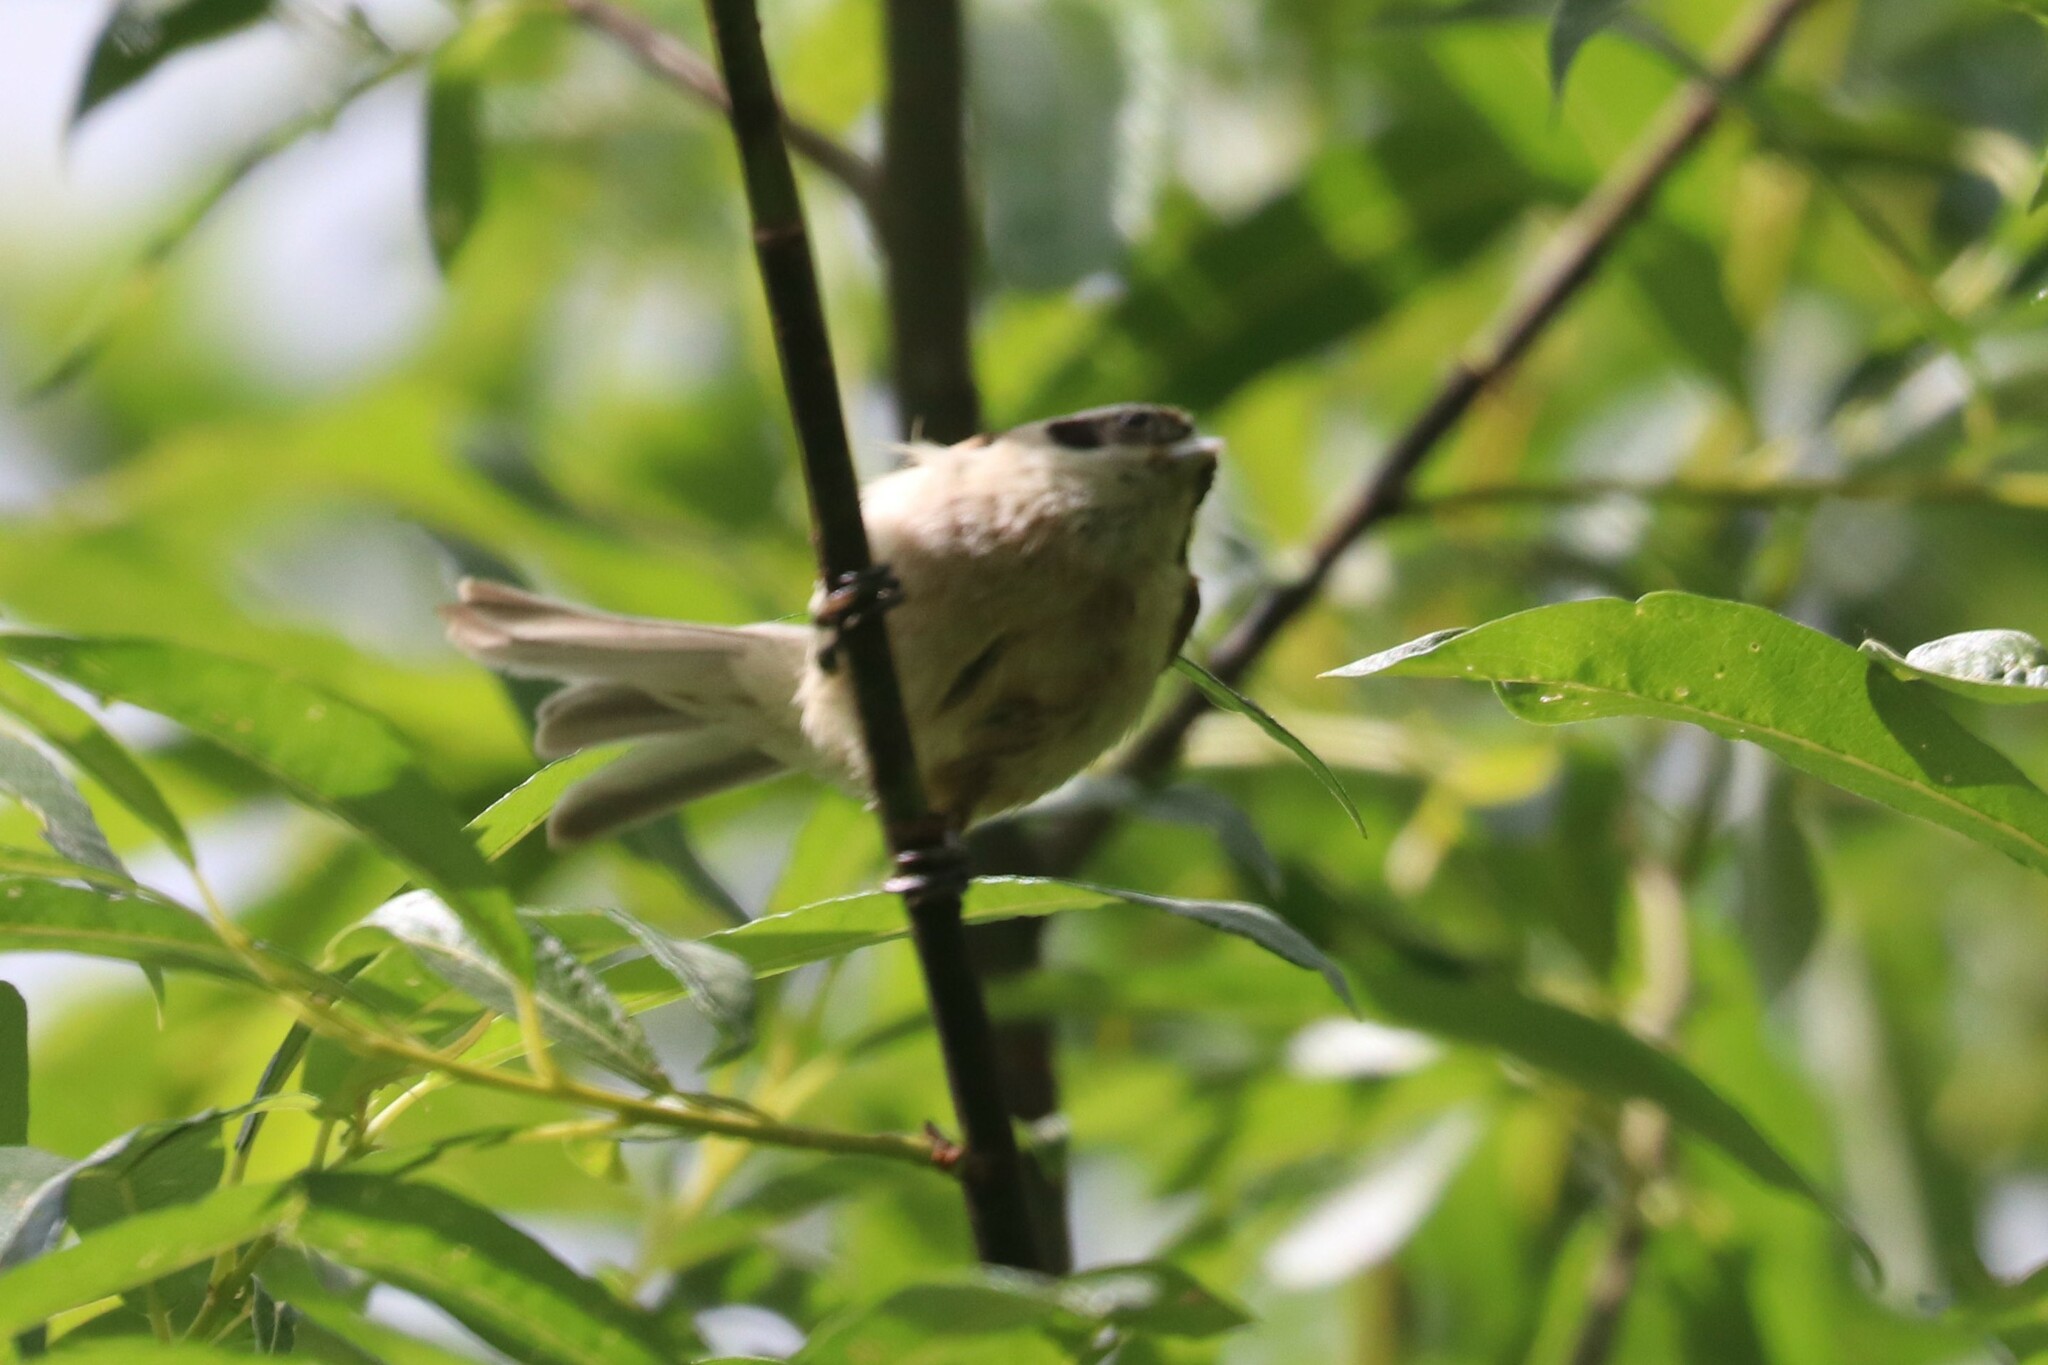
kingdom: Animalia
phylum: Chordata
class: Aves
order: Passeriformes
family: Remizidae
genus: Remiz
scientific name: Remiz pendulinus
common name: Eurasian penduline tit
